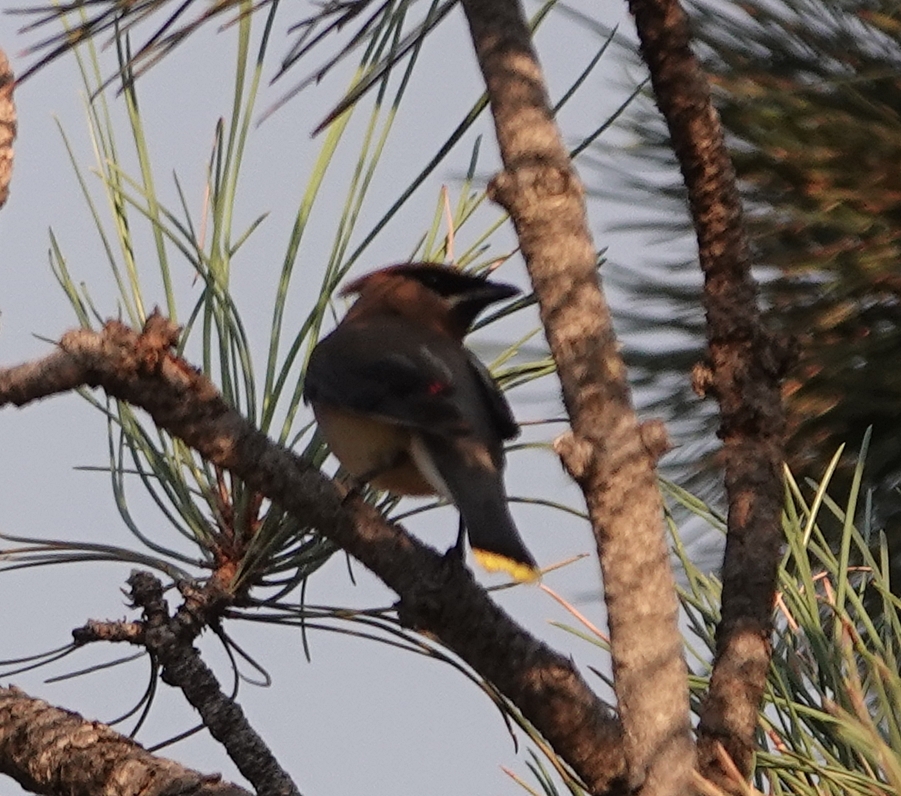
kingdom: Animalia
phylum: Chordata
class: Aves
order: Passeriformes
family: Bombycillidae
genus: Bombycilla
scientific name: Bombycilla cedrorum
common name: Cedar waxwing
